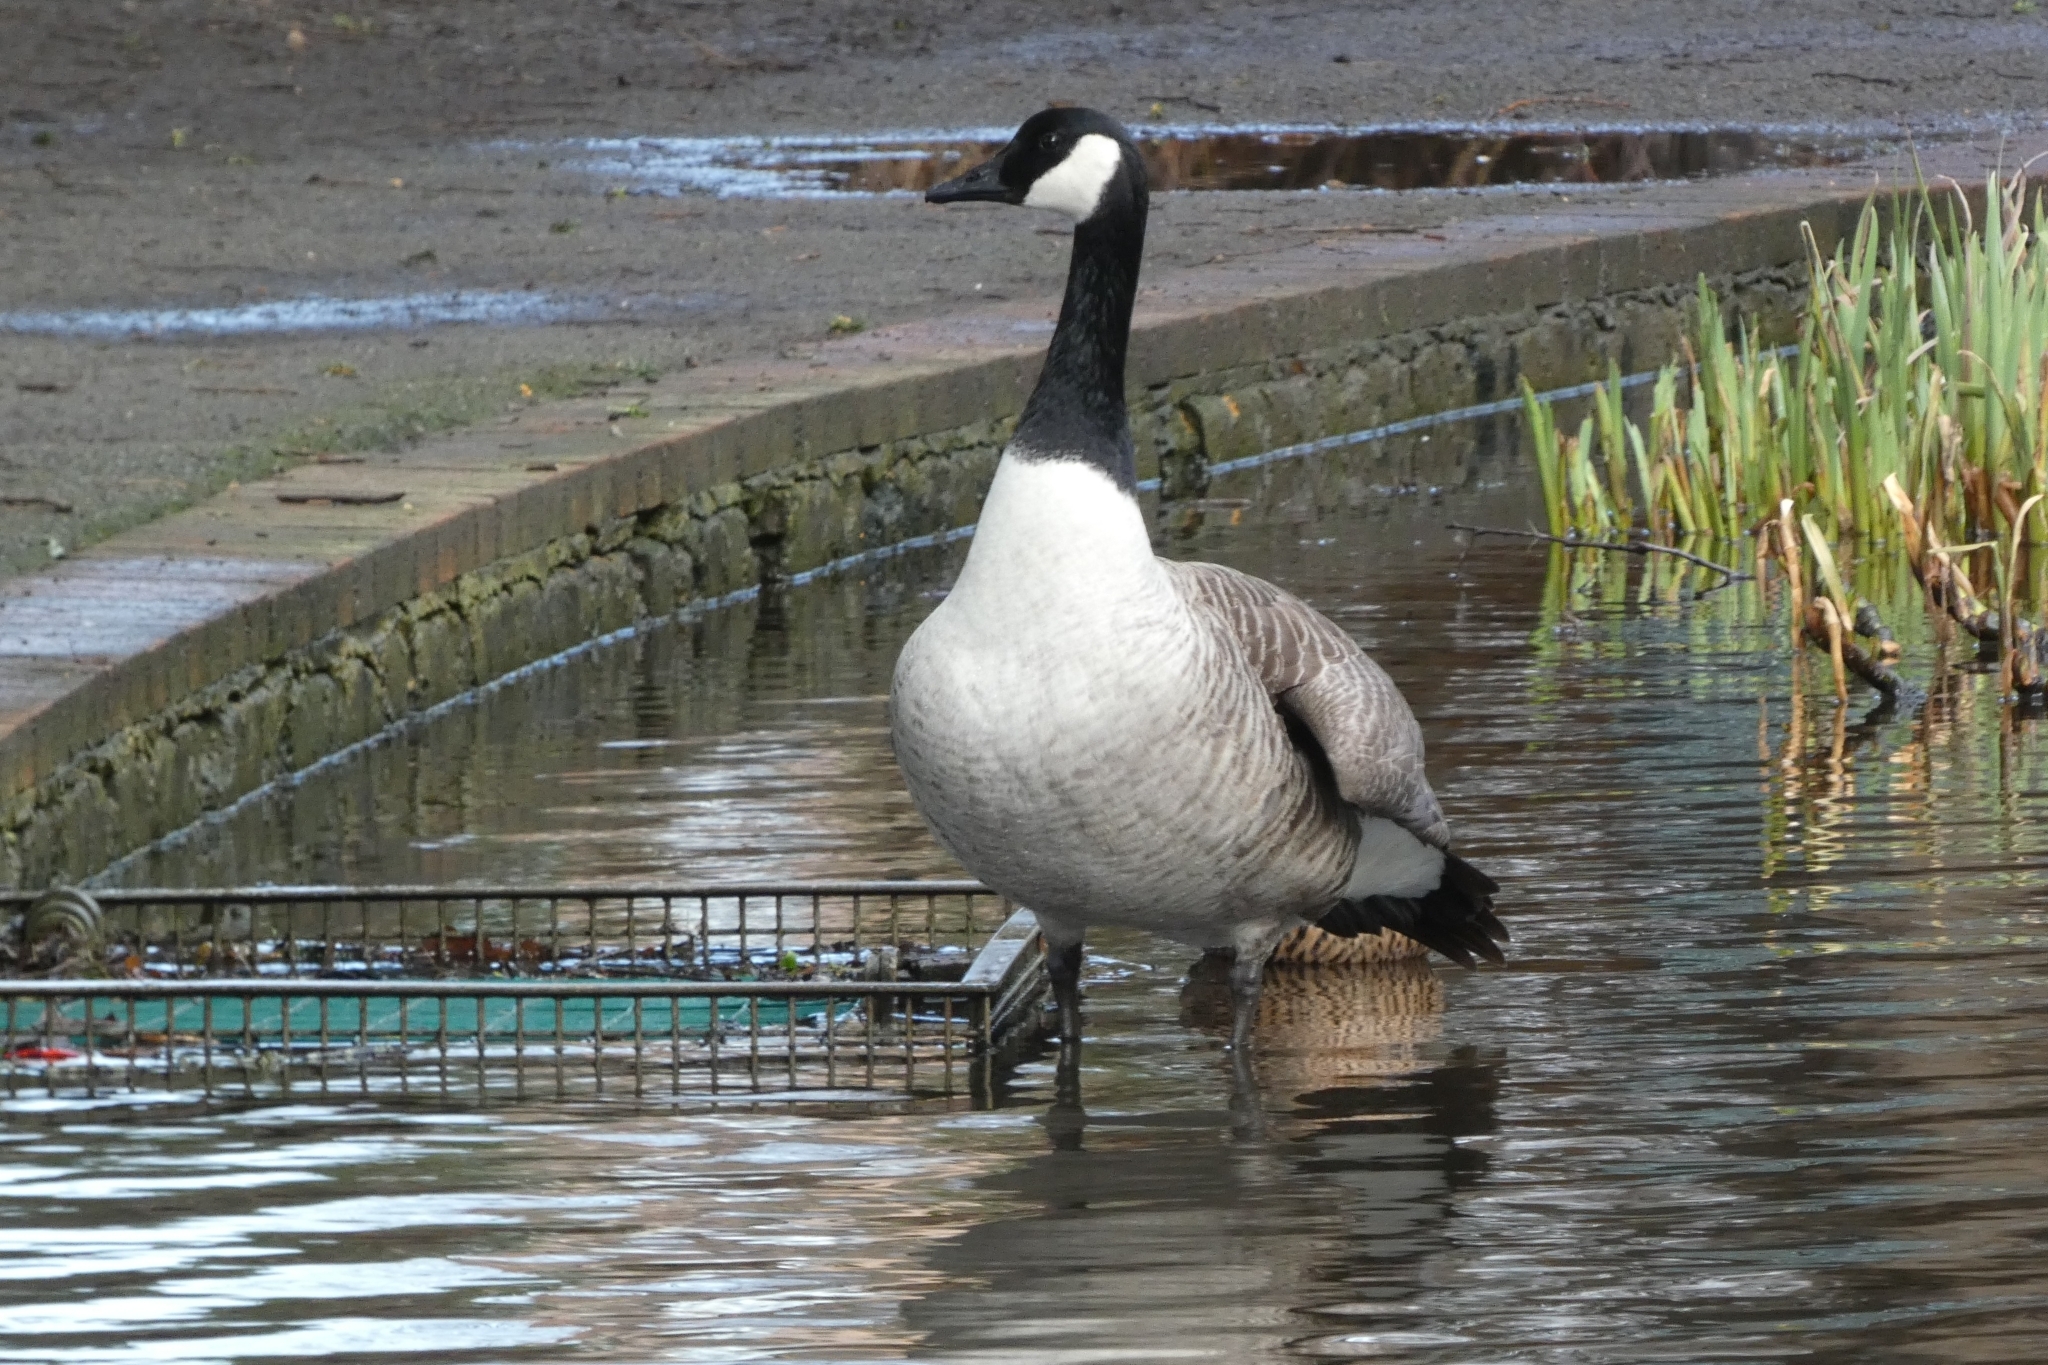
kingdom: Animalia
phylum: Chordata
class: Aves
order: Anseriformes
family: Anatidae
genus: Branta
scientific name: Branta canadensis
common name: Canada goose
